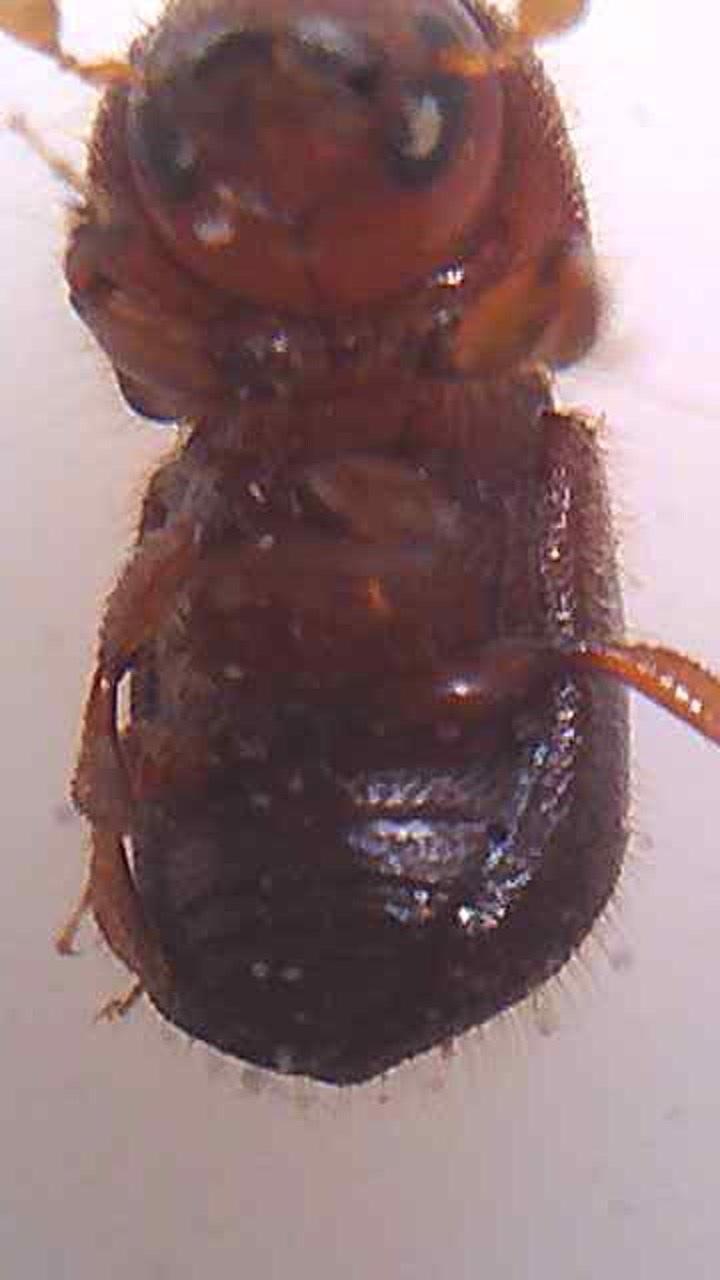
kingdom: Animalia
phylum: Arthropoda
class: Insecta
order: Coleoptera
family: Curculionidae
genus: Xylosandrus
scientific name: Xylosandrus crassiusculus
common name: Granulate ambrosia beetle
